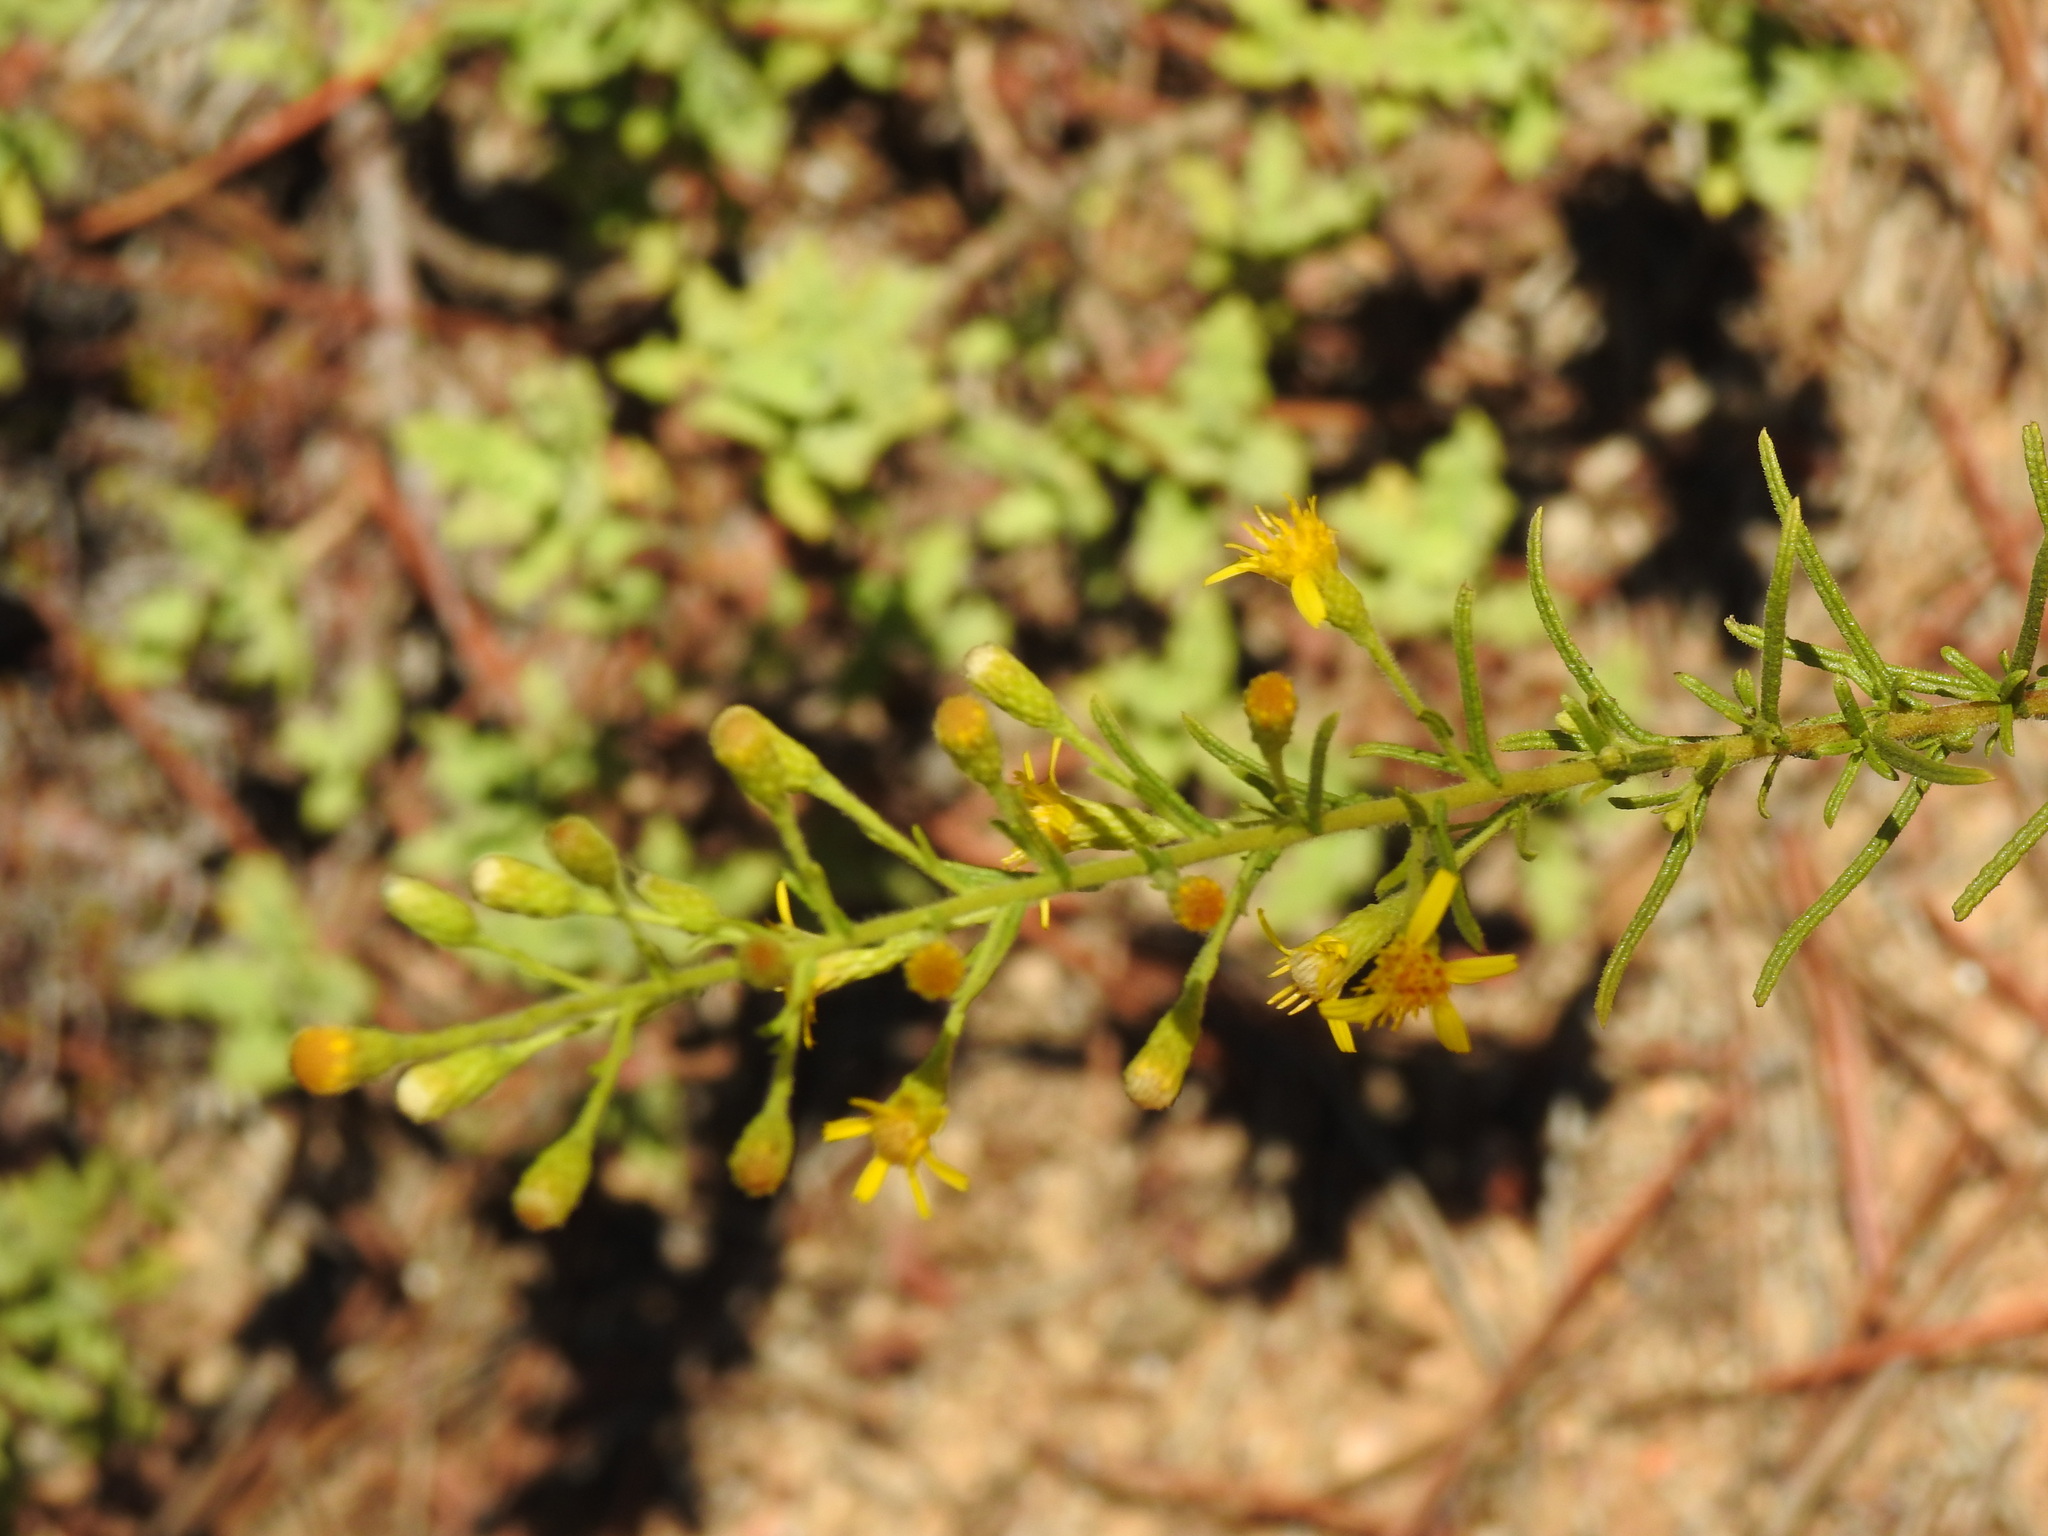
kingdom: Plantae
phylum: Tracheophyta
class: Magnoliopsida
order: Asterales
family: Asteraceae
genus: Dittrichia
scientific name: Dittrichia viscosa
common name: Woody fleabane
